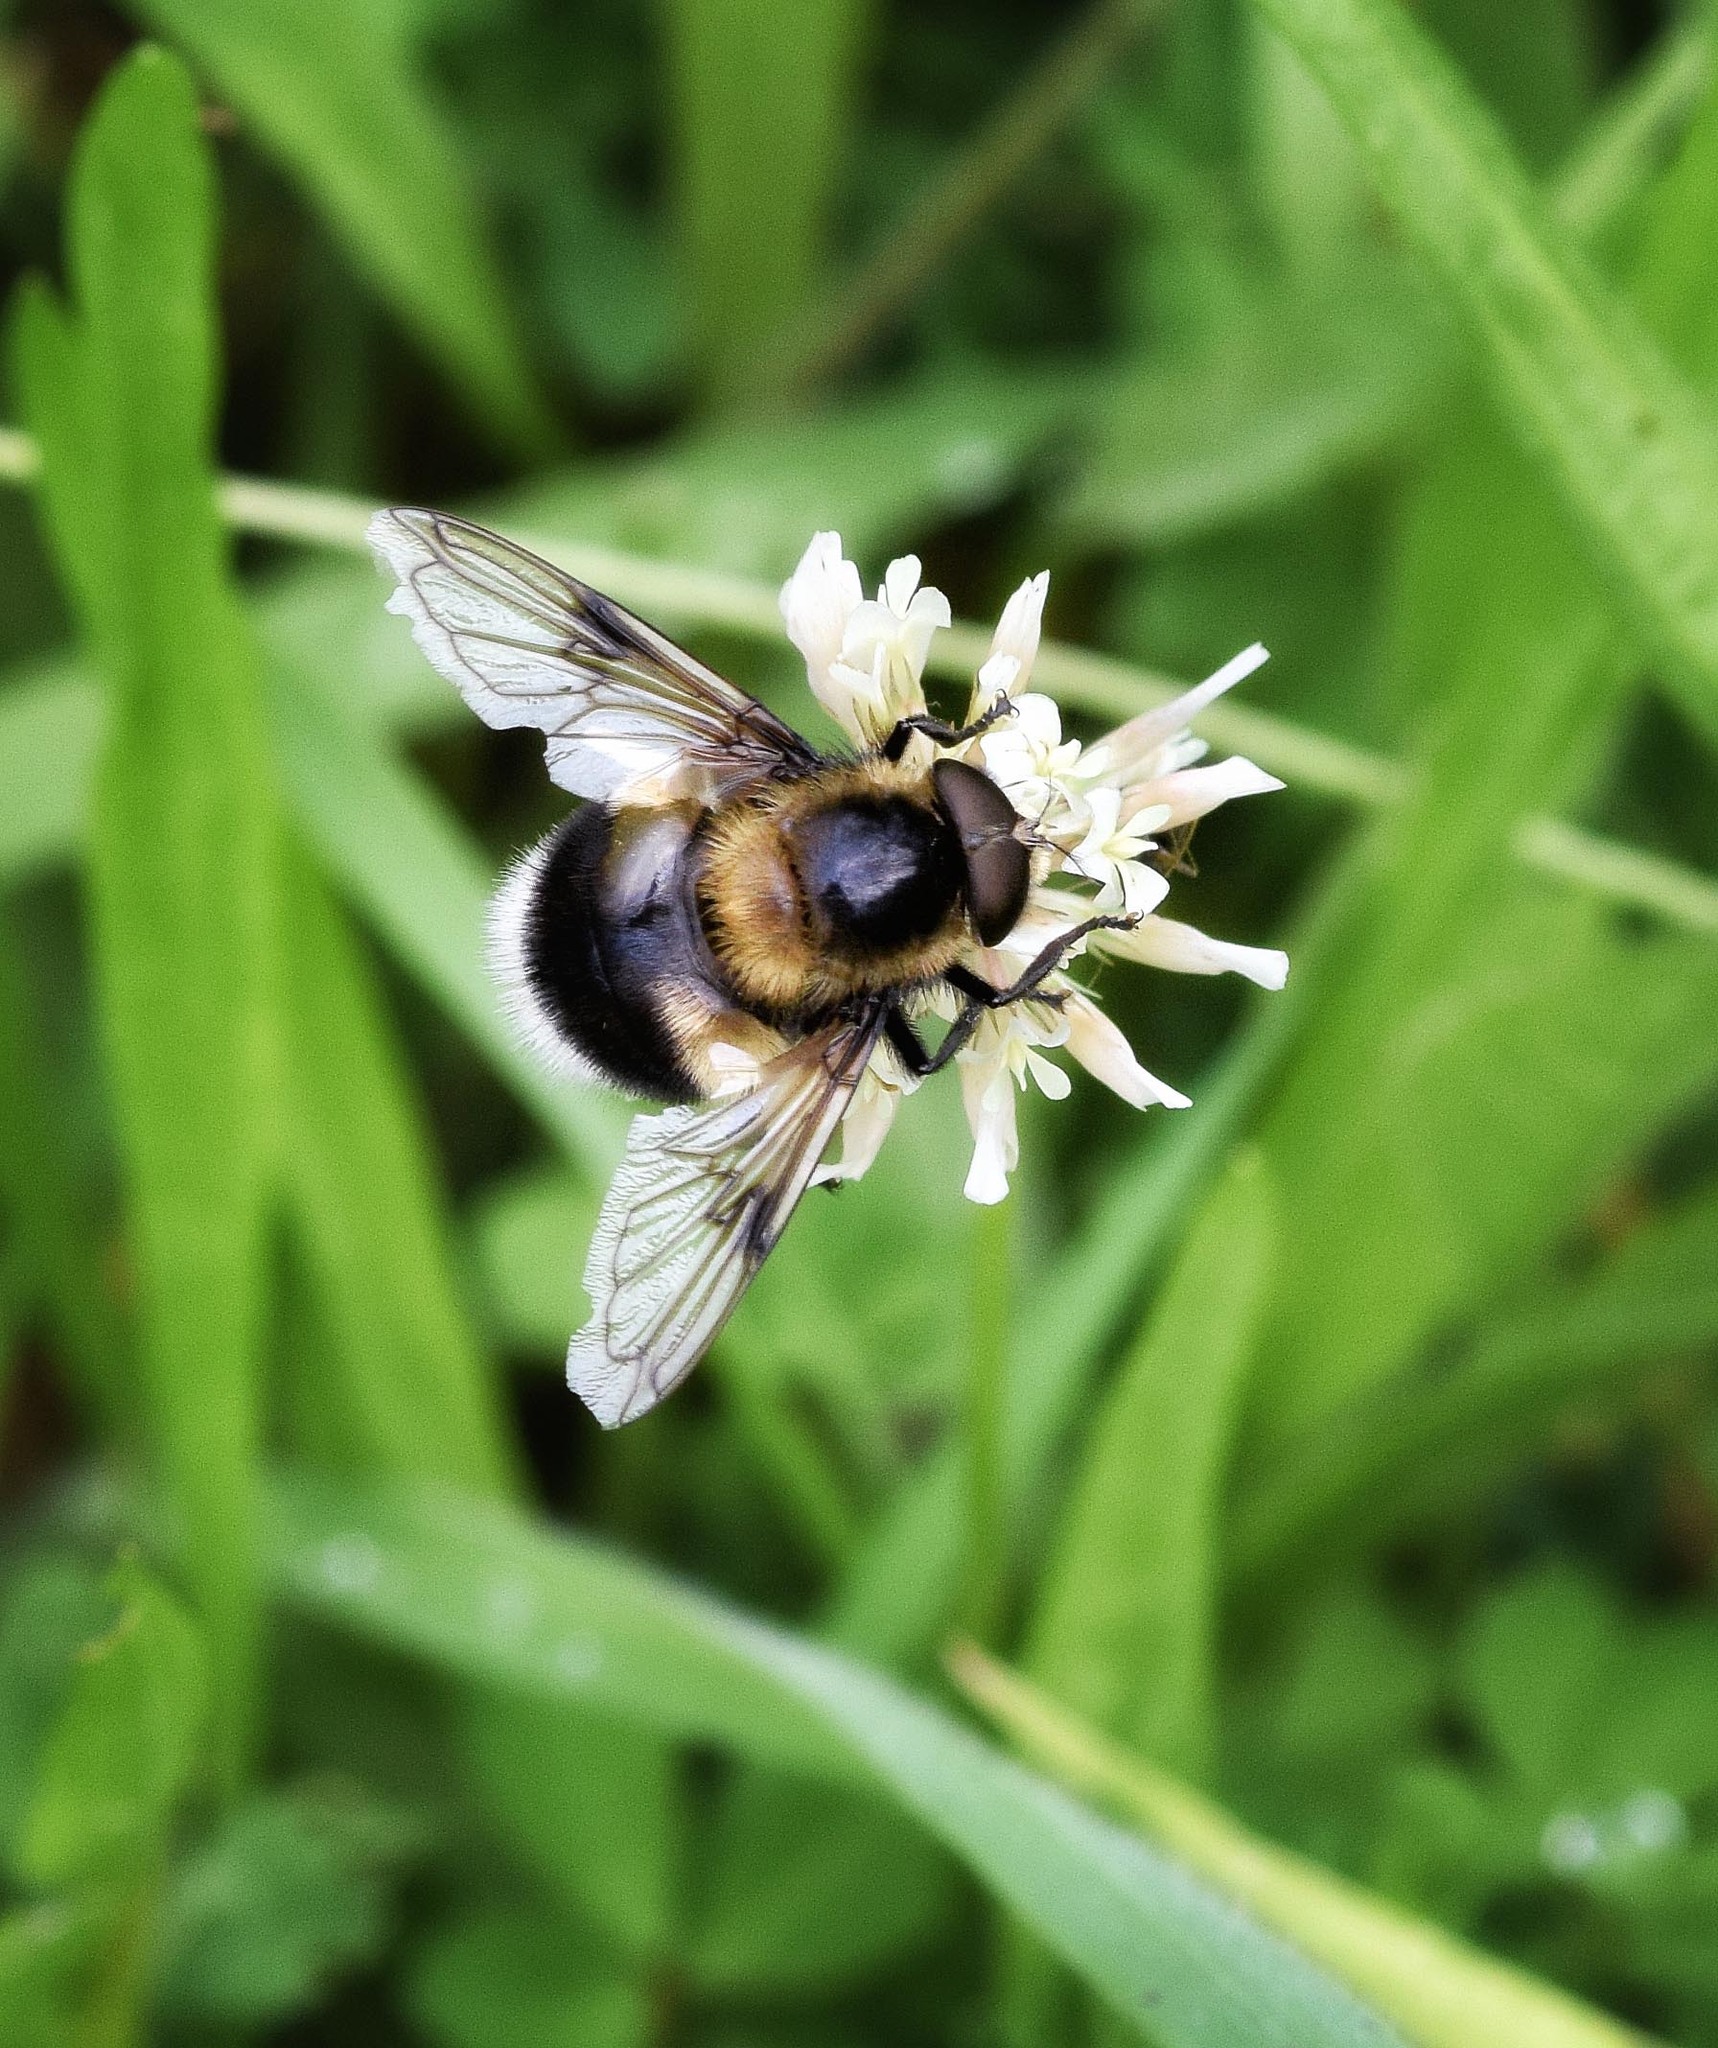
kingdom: Animalia
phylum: Arthropoda
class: Insecta
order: Diptera
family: Syrphidae
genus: Volucella
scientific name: Volucella bombylans
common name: Bumble bee hover fly
